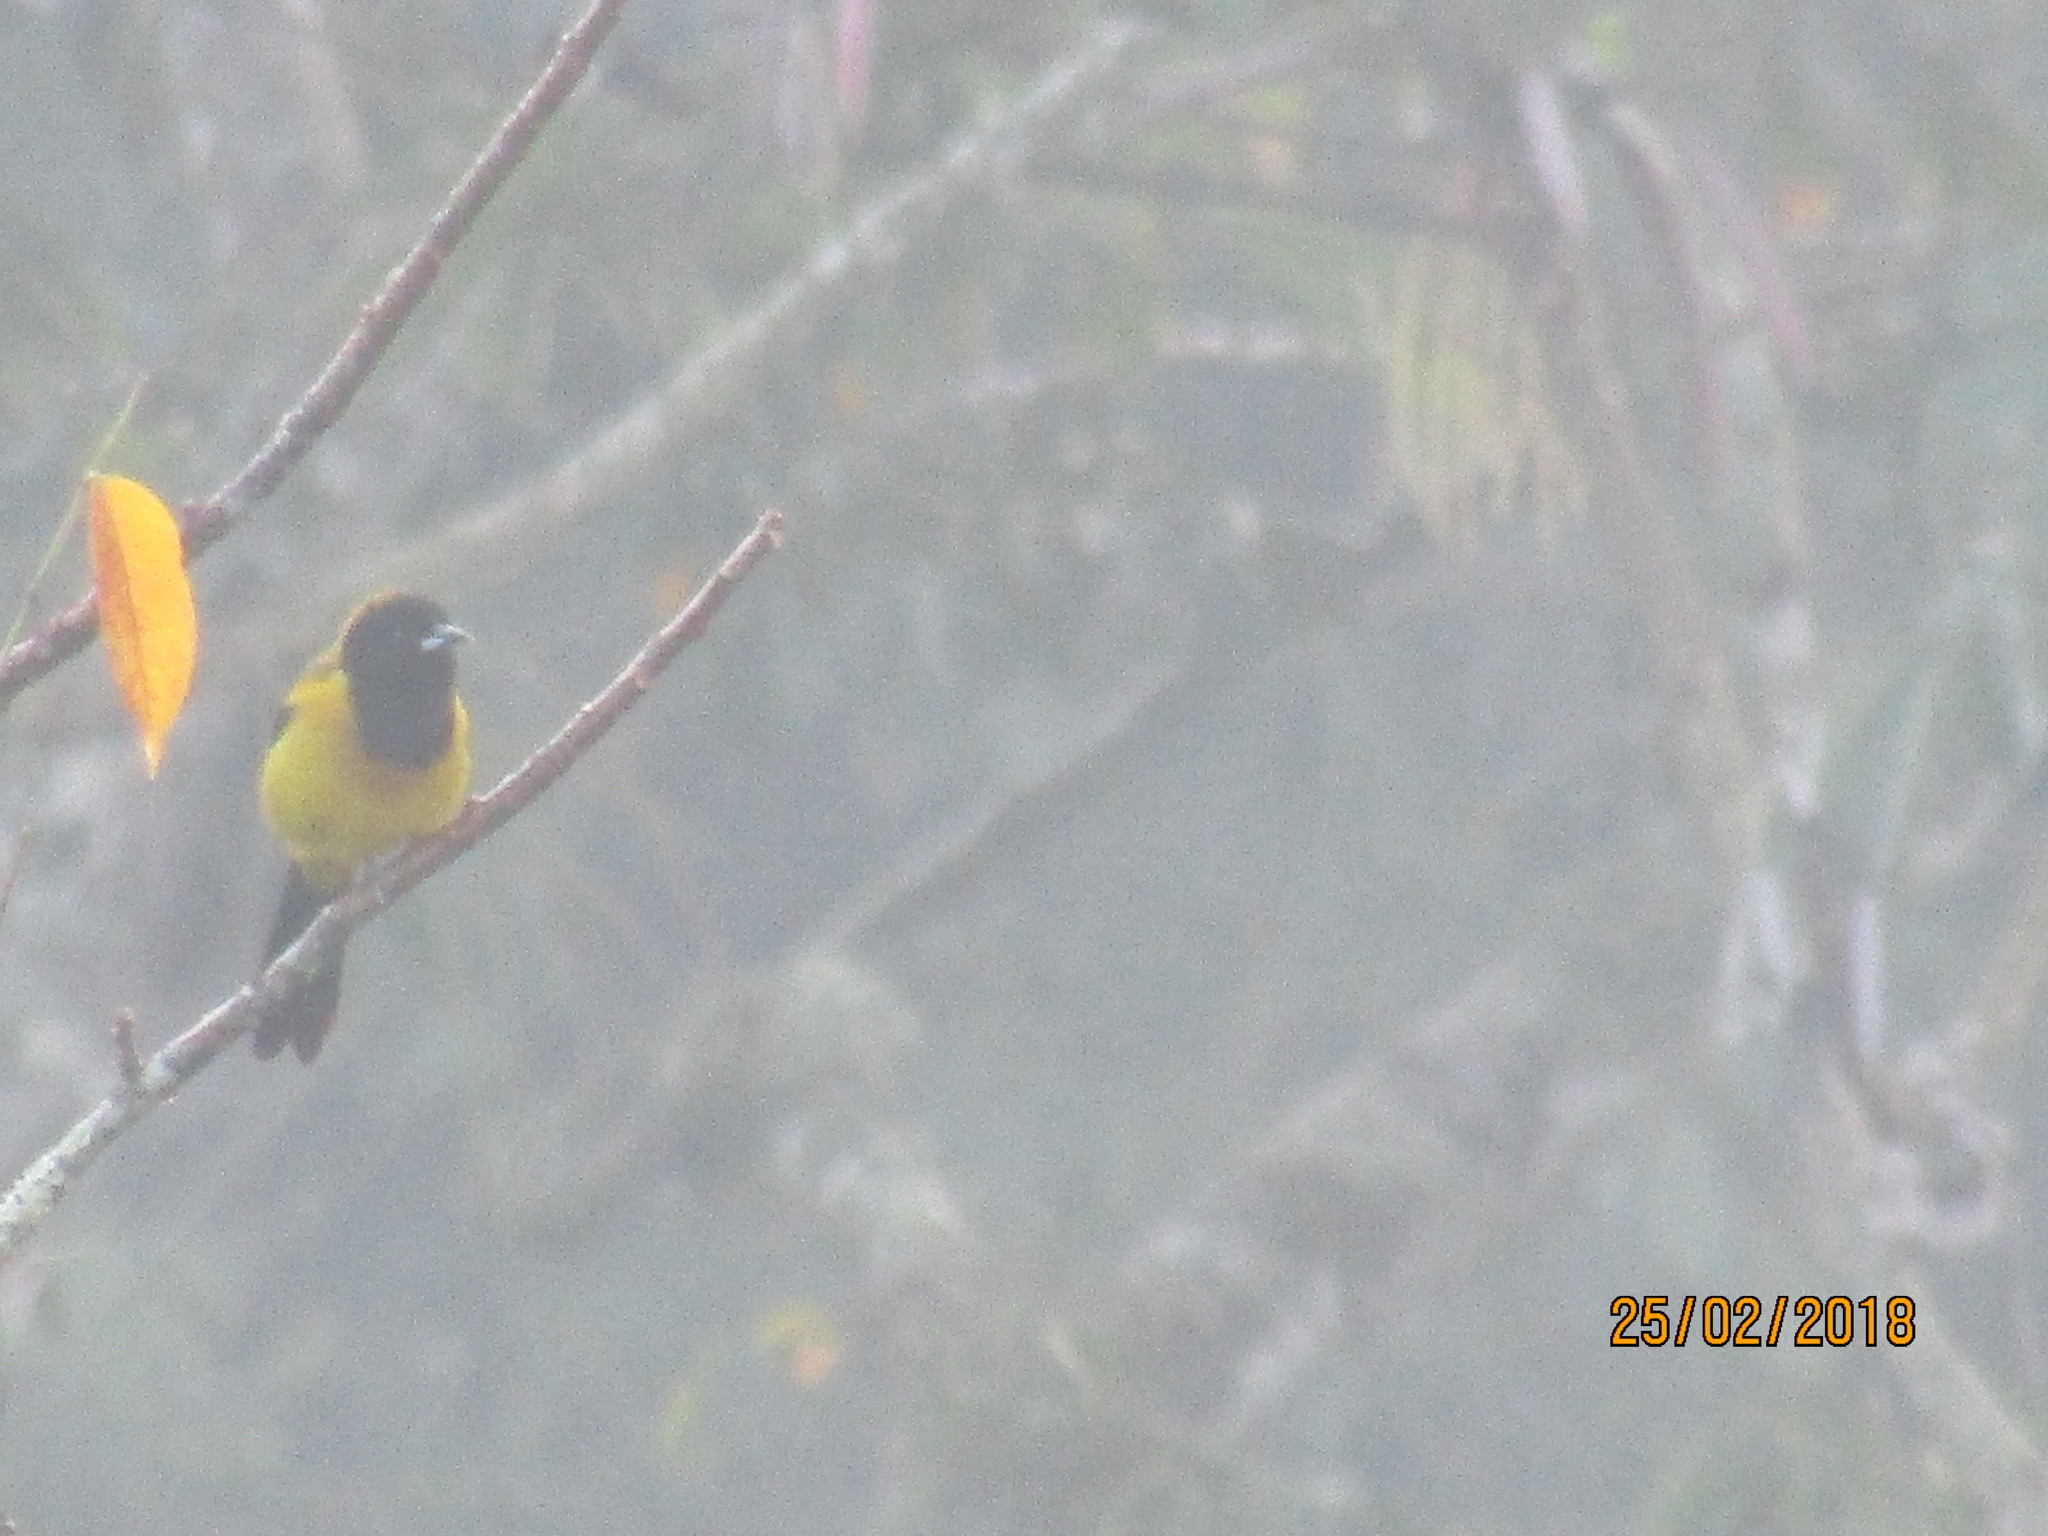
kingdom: Animalia
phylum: Chordata
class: Aves
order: Passeriformes
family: Icteridae
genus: Icterus
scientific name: Icterus graduacauda
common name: Audubon's oriole
